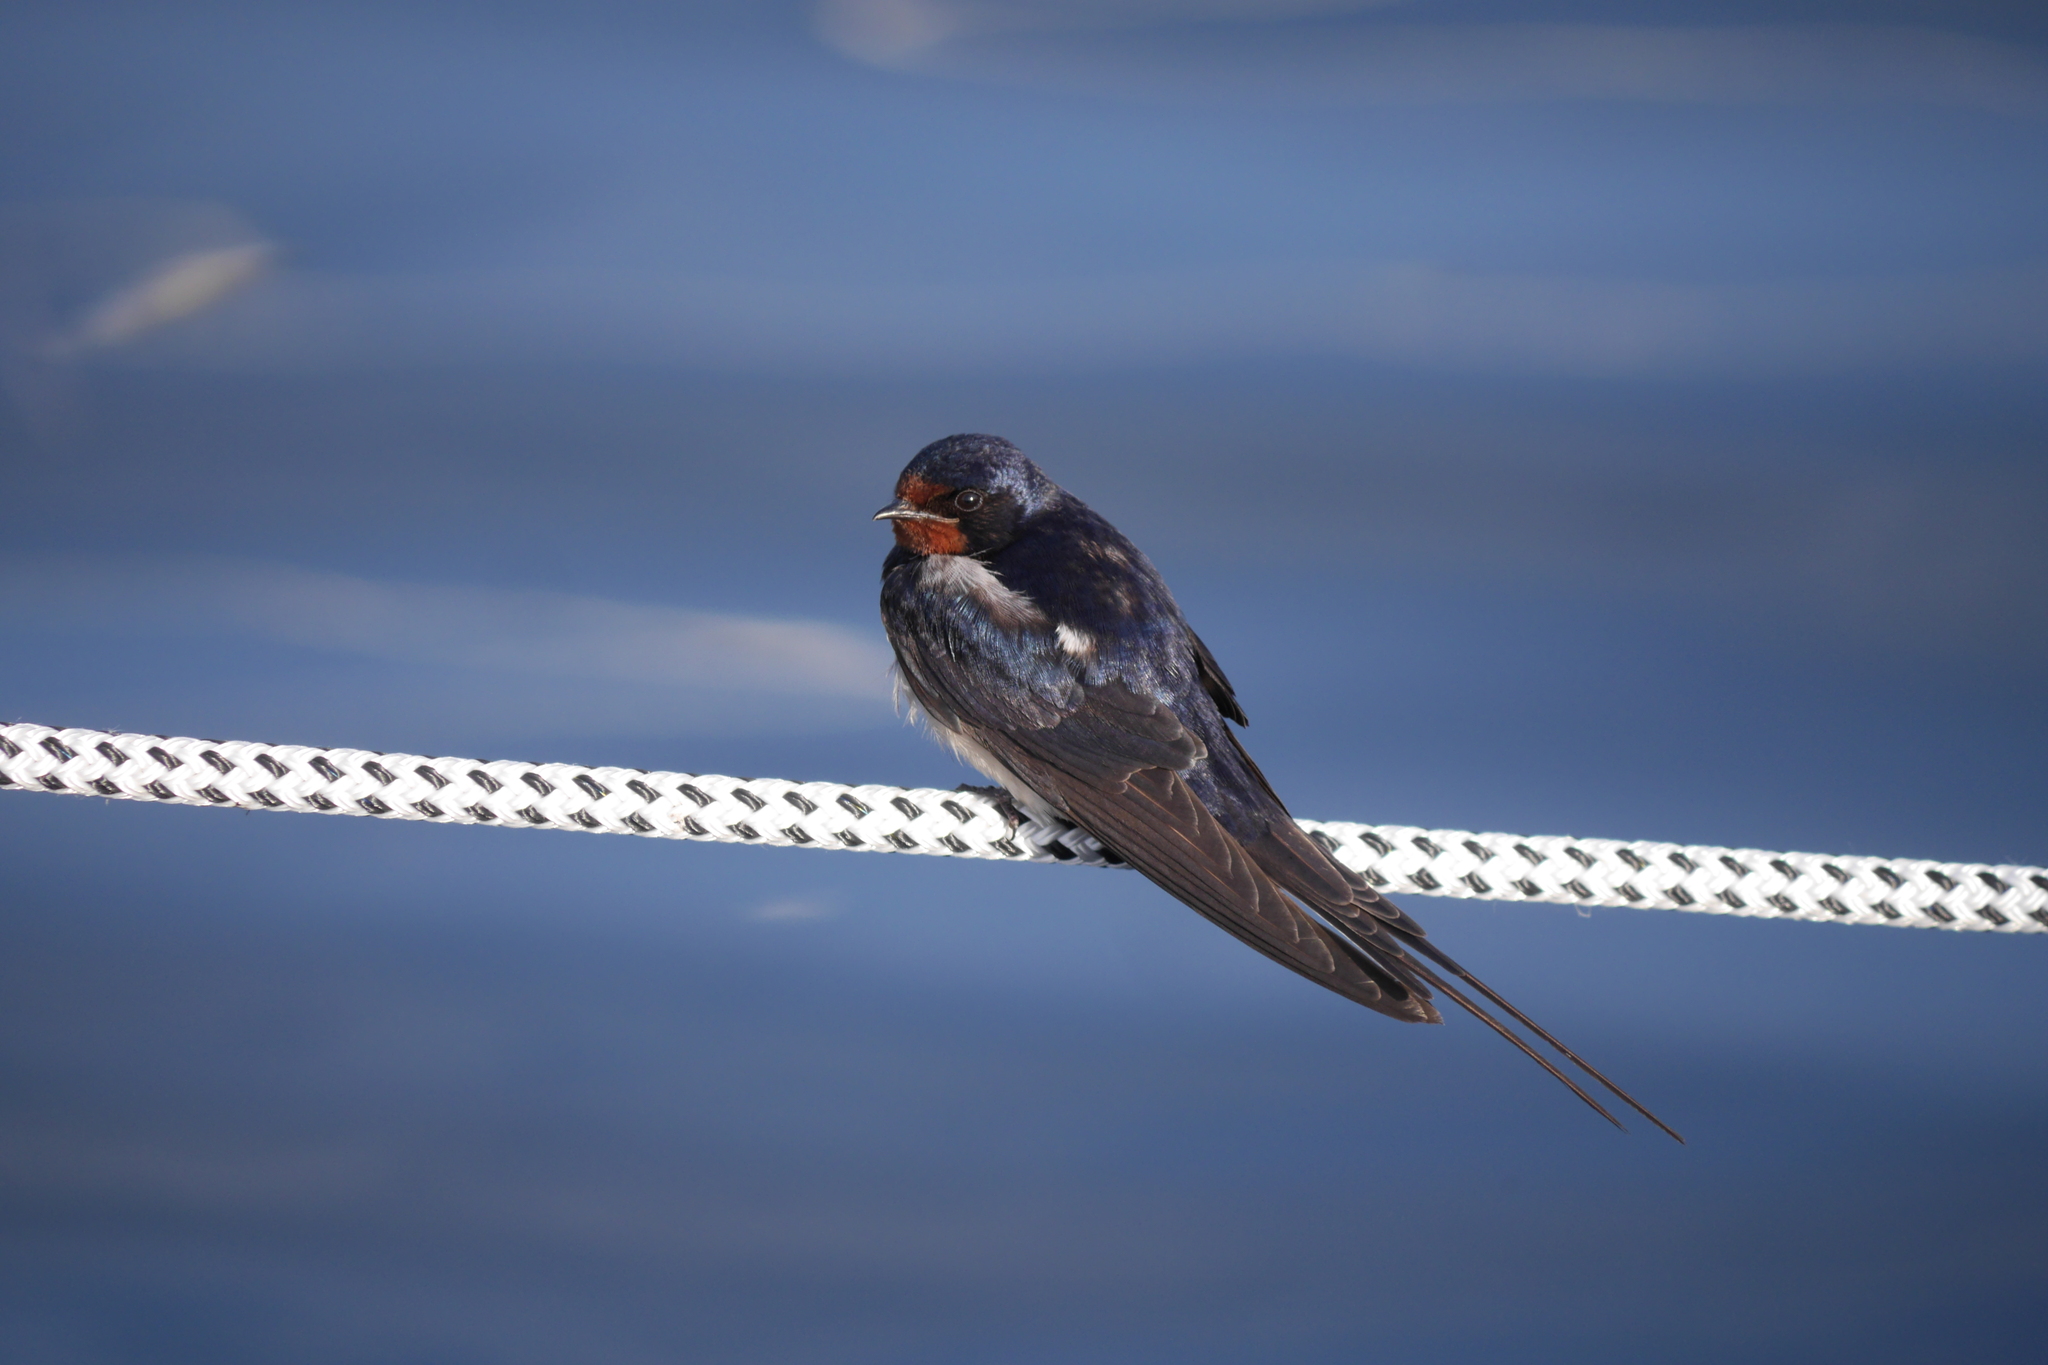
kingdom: Animalia
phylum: Chordata
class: Aves
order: Passeriformes
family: Hirundinidae
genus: Hirundo
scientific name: Hirundo rustica
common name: Barn swallow
